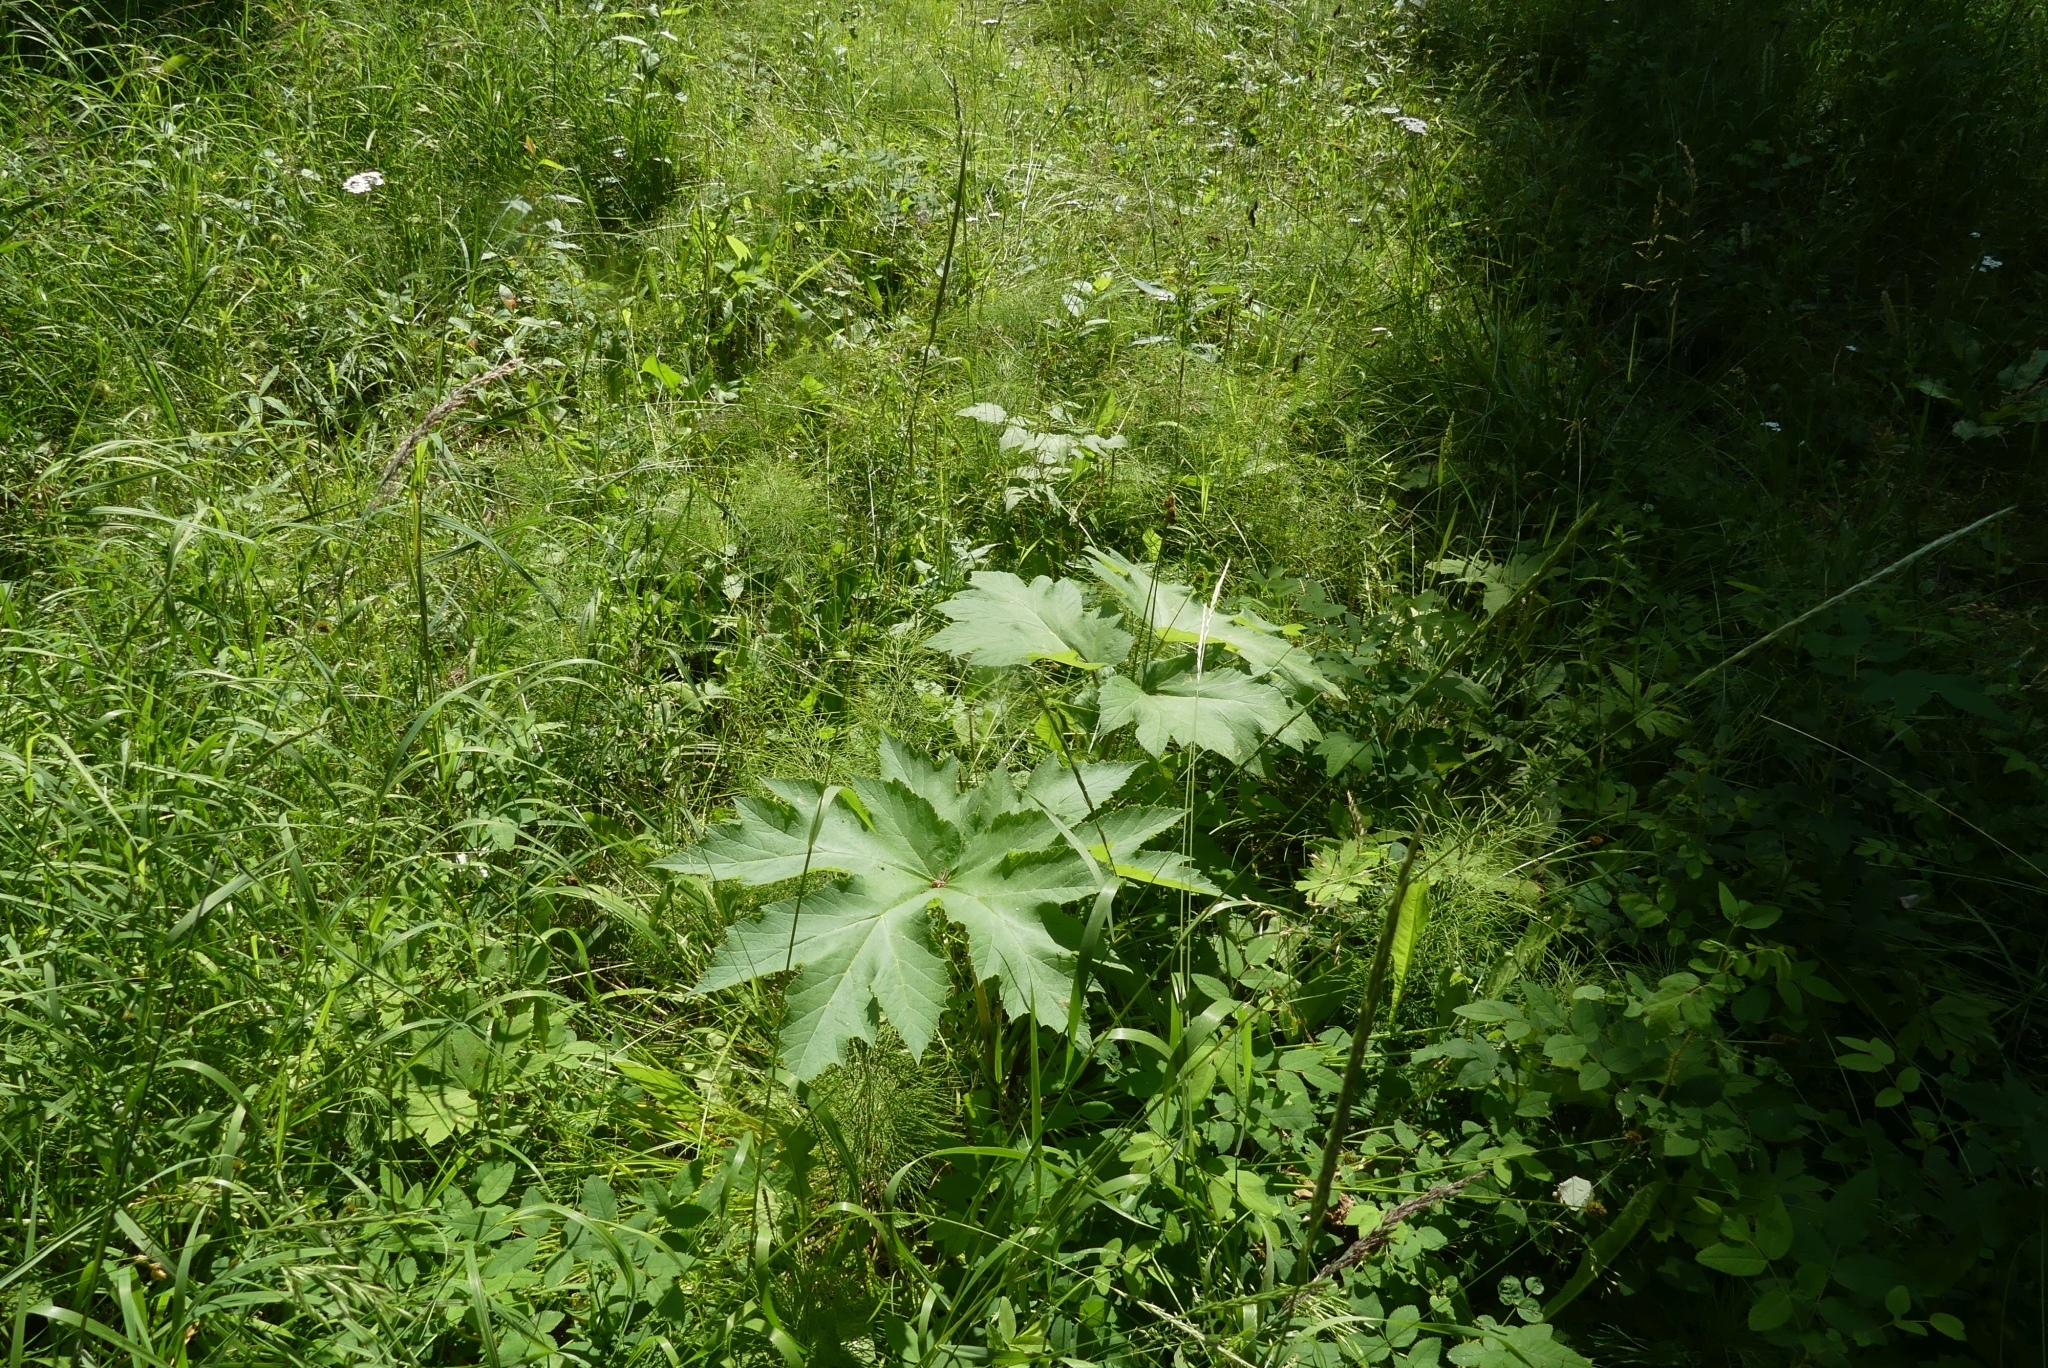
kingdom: Plantae
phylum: Tracheophyta
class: Magnoliopsida
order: Apiales
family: Apiaceae
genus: Heracleum
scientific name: Heracleum maximum
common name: American cow parsnip
